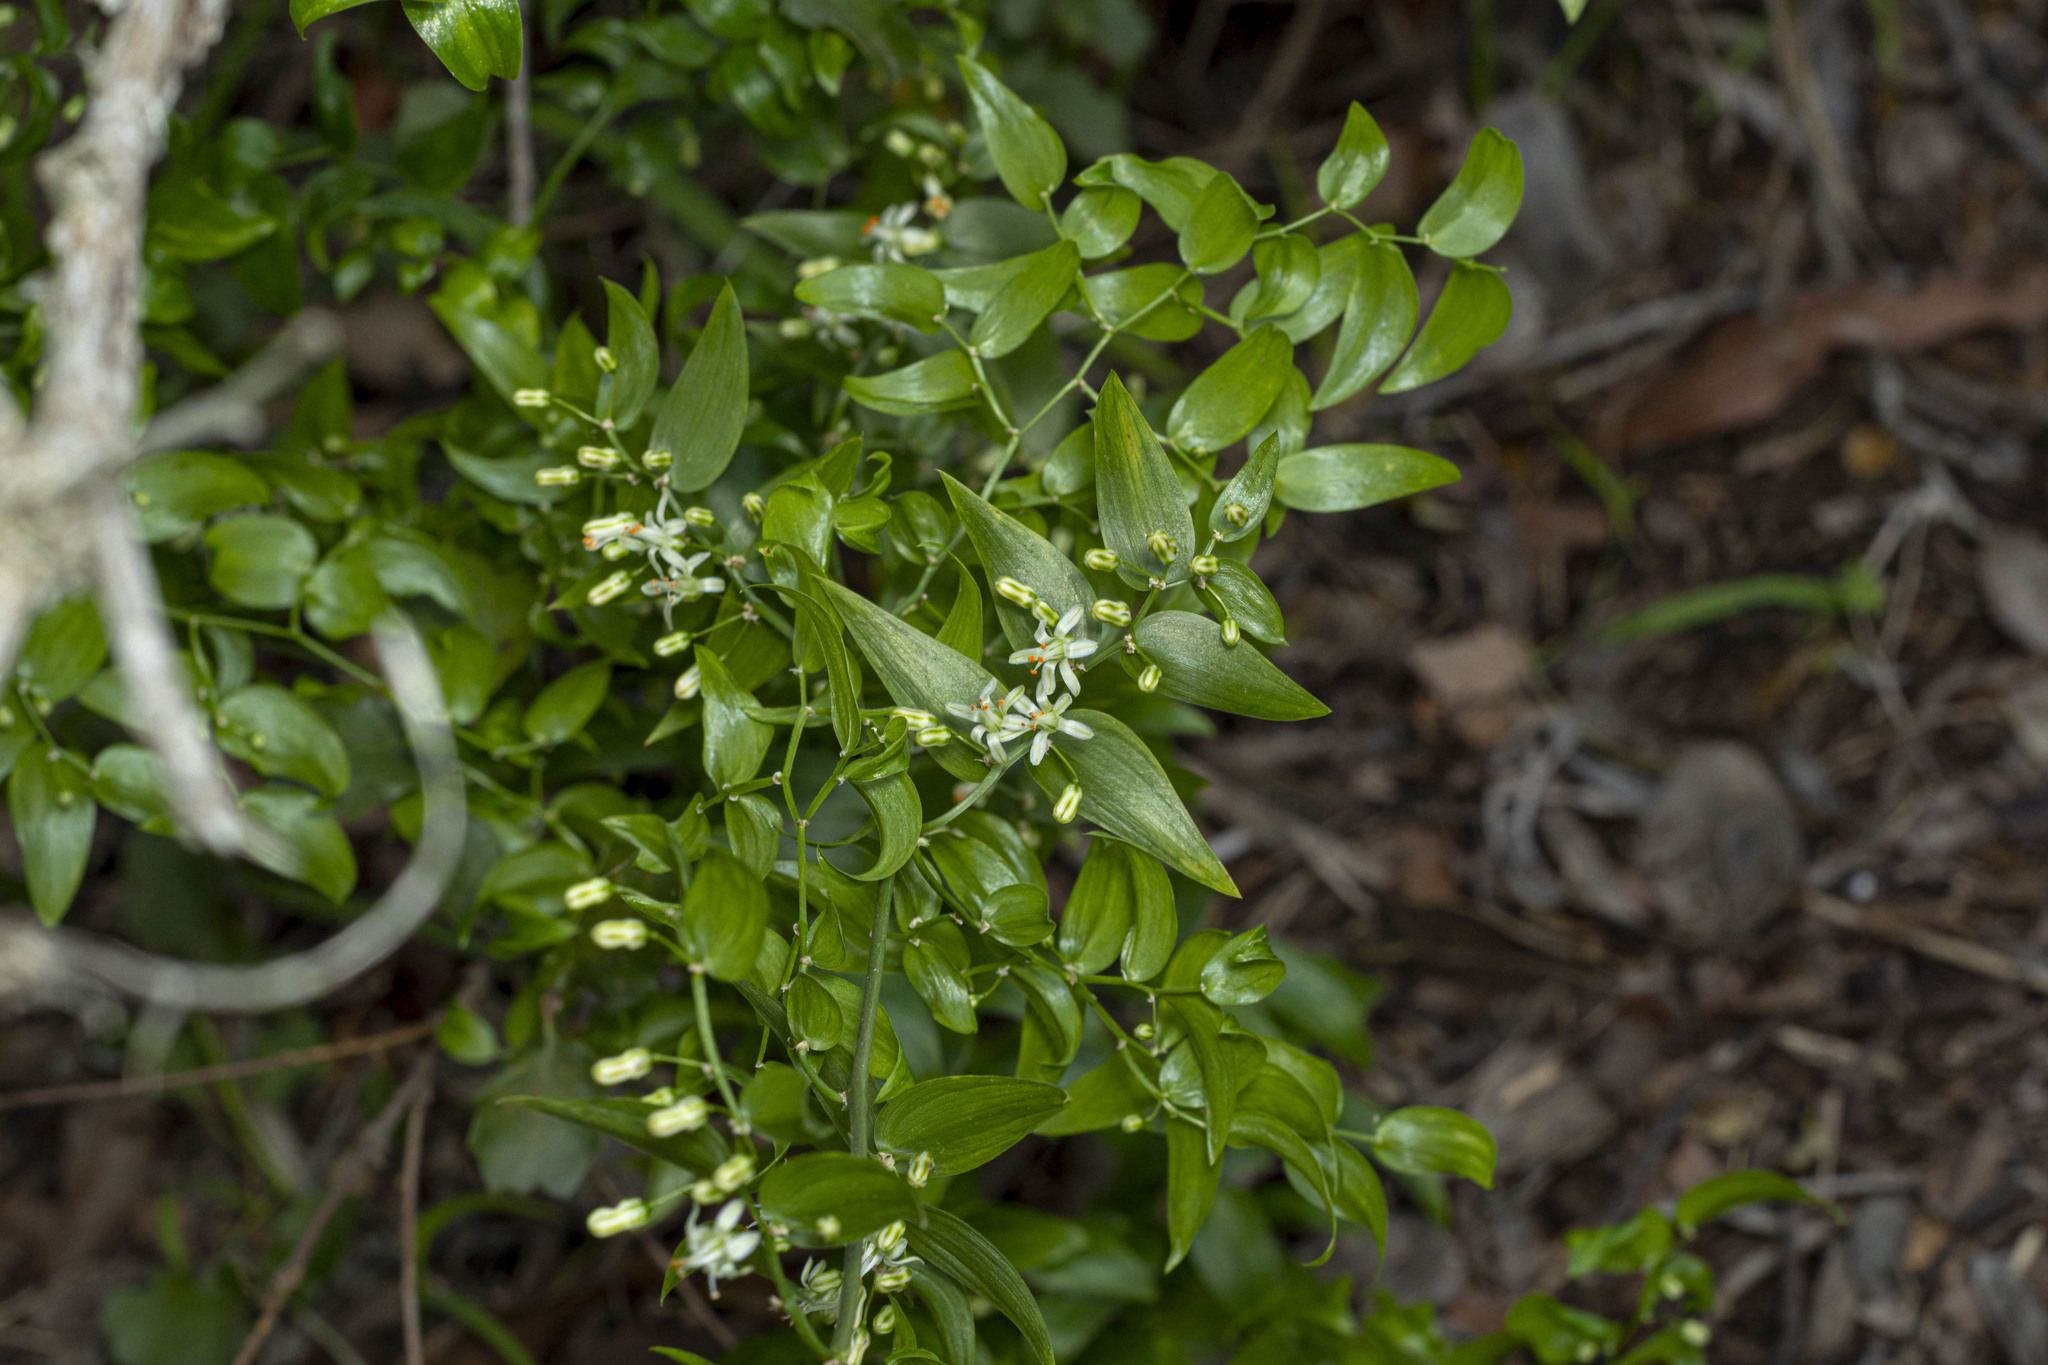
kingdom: Plantae
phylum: Tracheophyta
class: Liliopsida
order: Asparagales
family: Asparagaceae
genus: Asparagus
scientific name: Asparagus asparagoides
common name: African asparagus fern
